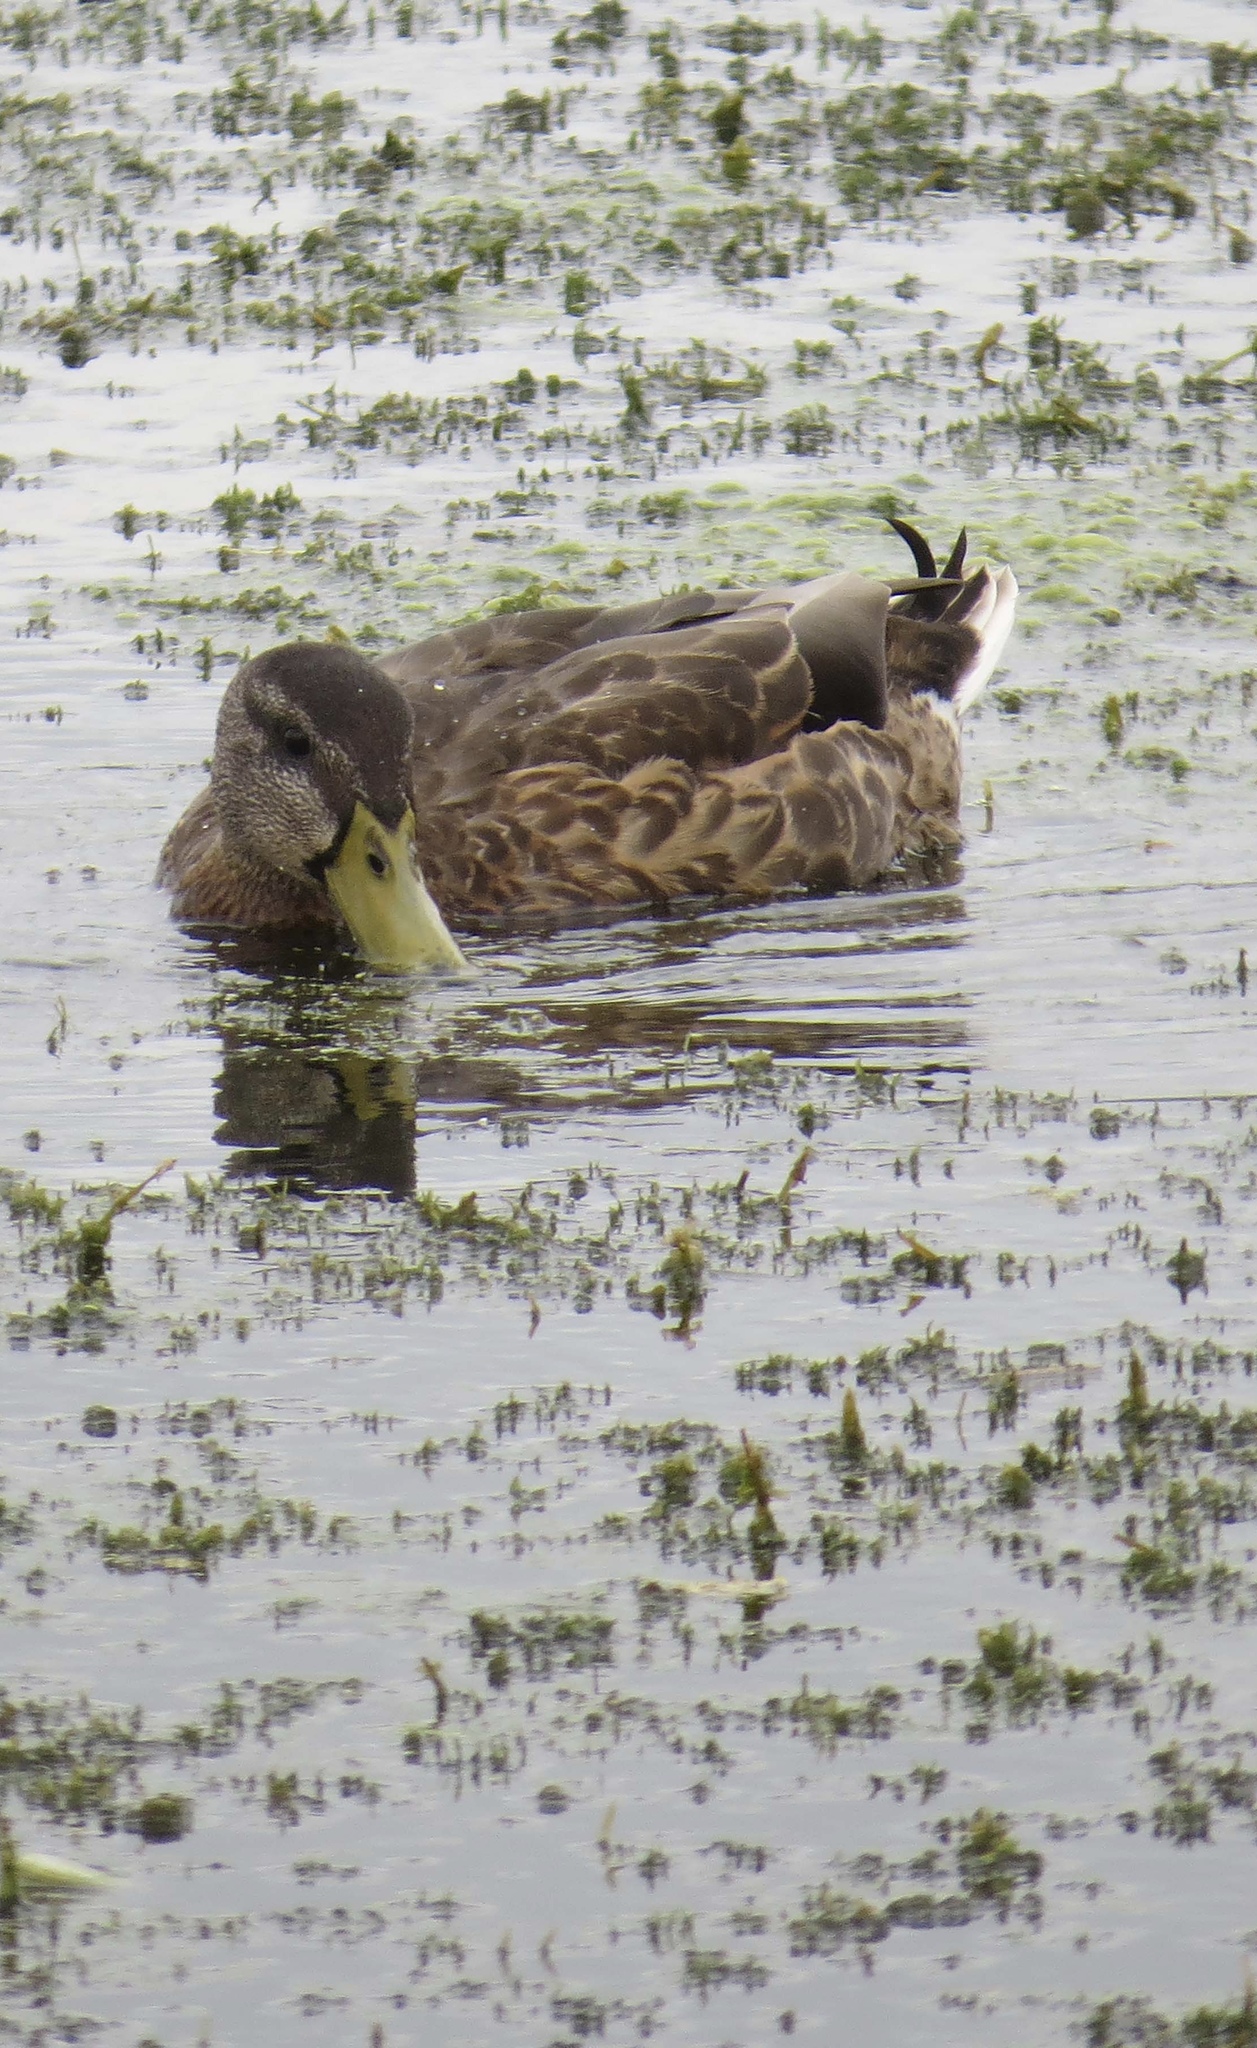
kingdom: Animalia
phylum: Chordata
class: Aves
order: Anseriformes
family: Anatidae
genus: Anas
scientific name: Anas platyrhynchos
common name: Mallard
